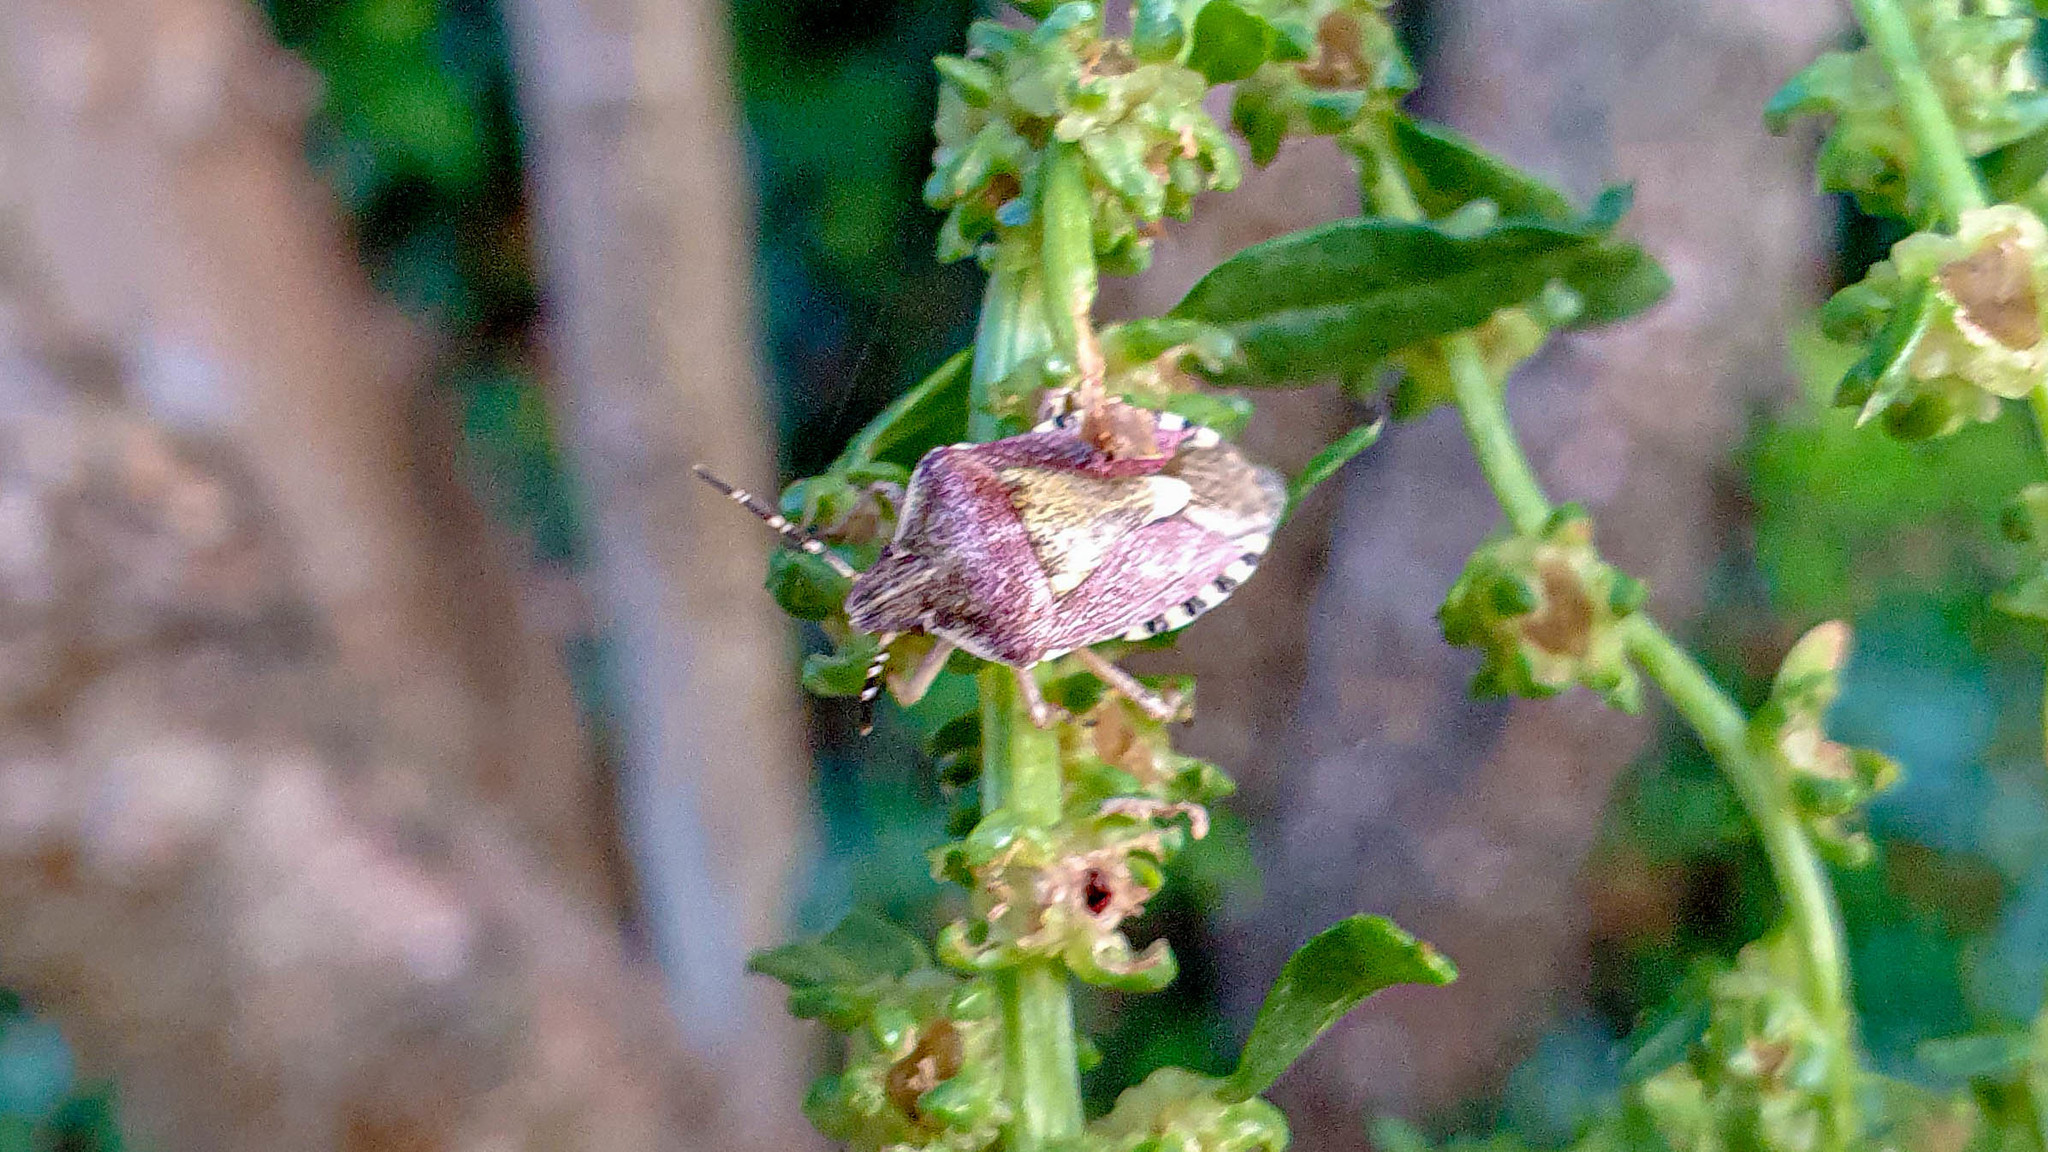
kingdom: Animalia
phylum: Arthropoda
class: Insecta
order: Hemiptera
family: Pentatomidae
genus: Dolycoris
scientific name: Dolycoris baccarum
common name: Sloe bug
